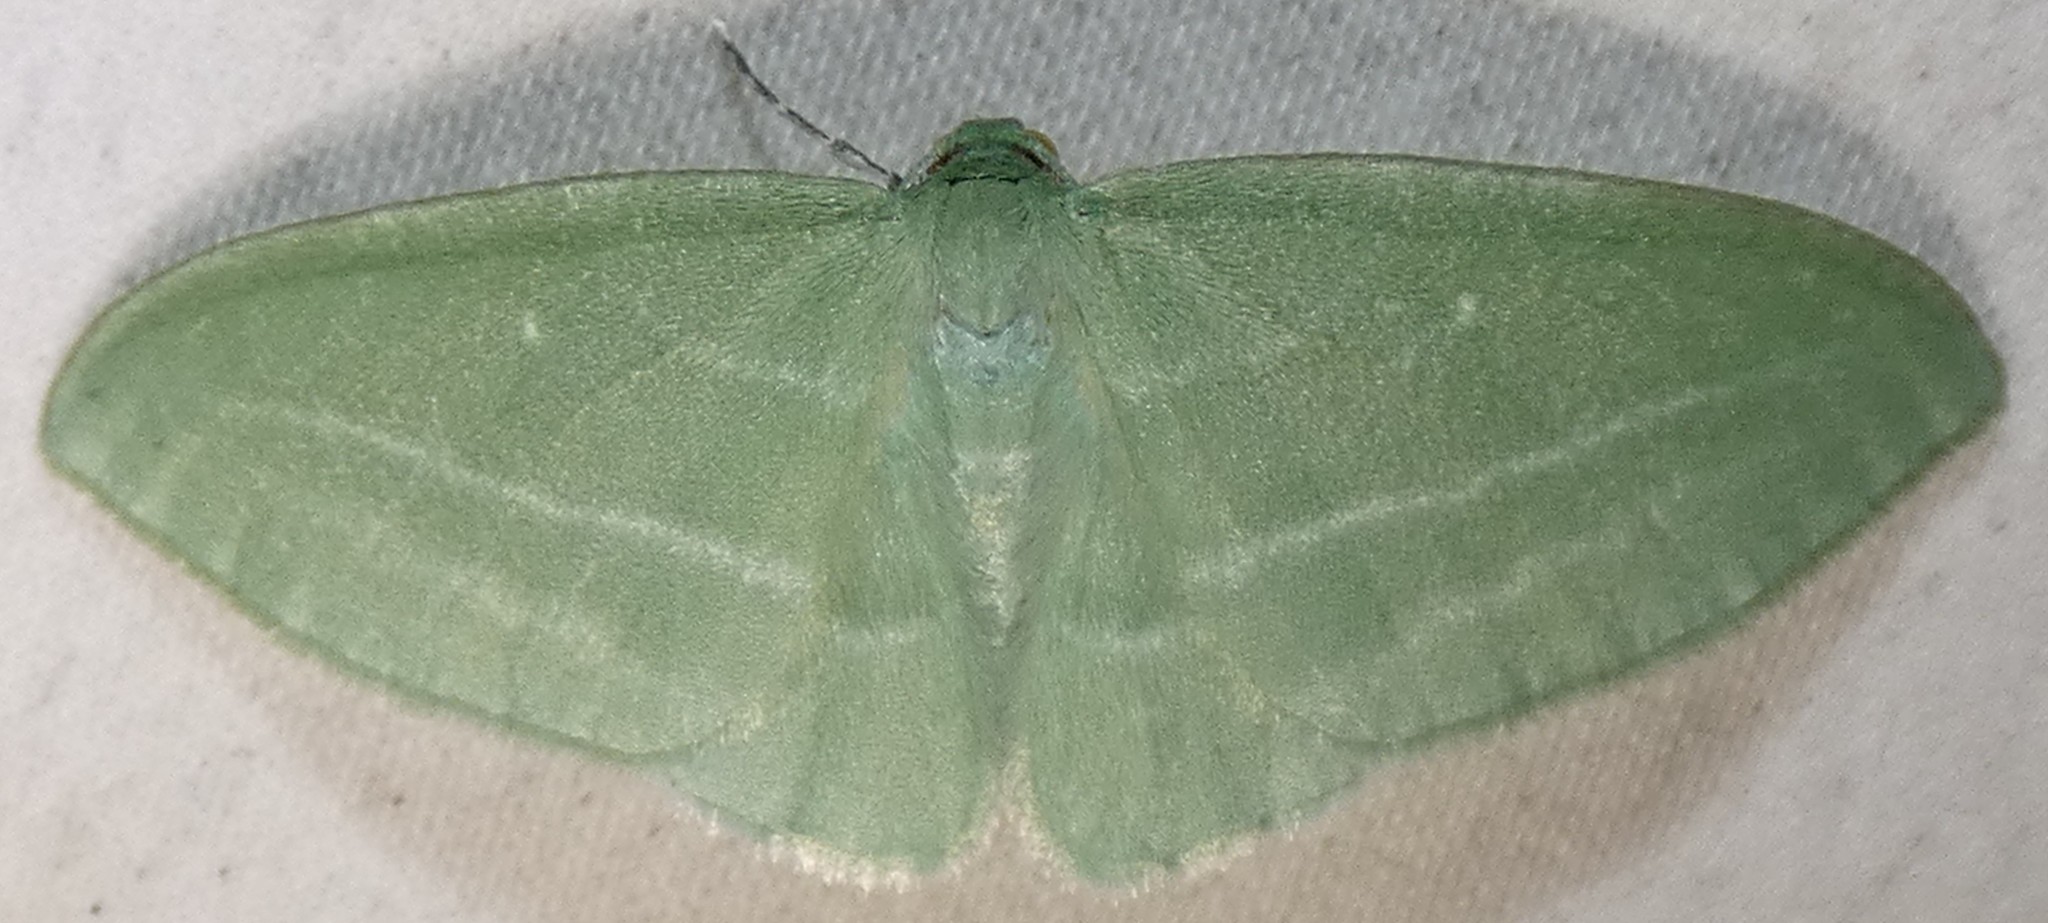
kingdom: Animalia
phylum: Arthropoda
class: Insecta
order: Lepidoptera
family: Geometridae
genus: Dyspteris
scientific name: Dyspteris abortivaria
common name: Bad-wing
